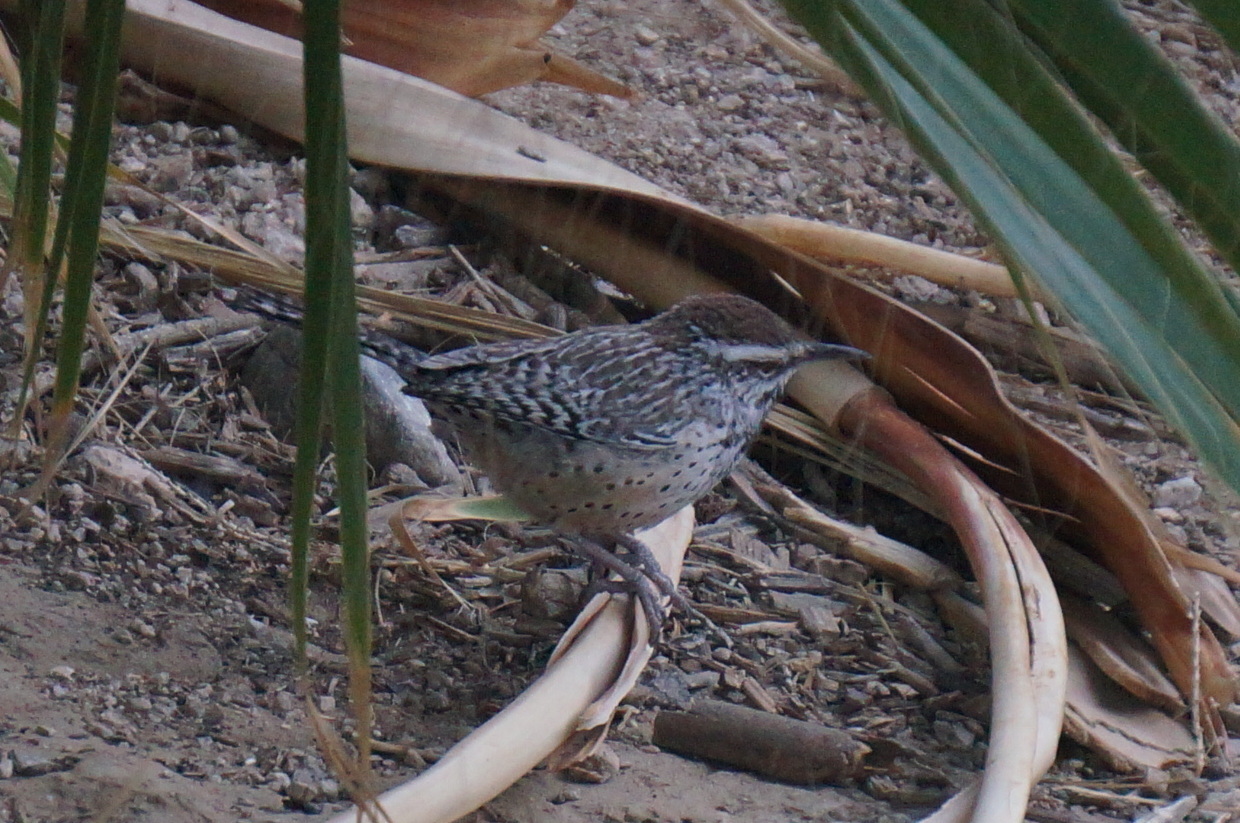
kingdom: Animalia
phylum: Chordata
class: Aves
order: Passeriformes
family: Troglodytidae
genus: Campylorhynchus
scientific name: Campylorhynchus brunneicapillus
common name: Cactus wren
